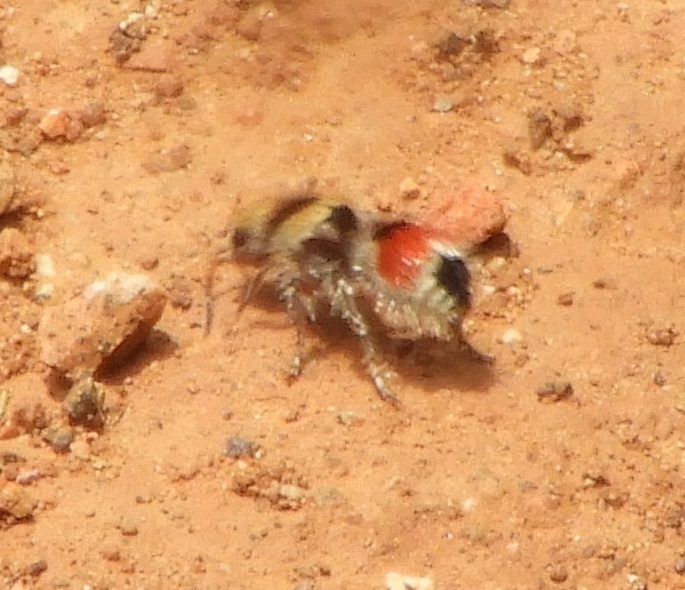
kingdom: Animalia
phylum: Arthropoda
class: Insecta
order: Hymenoptera
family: Mutillidae
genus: Dasymutilla
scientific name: Dasymutilla foxi
